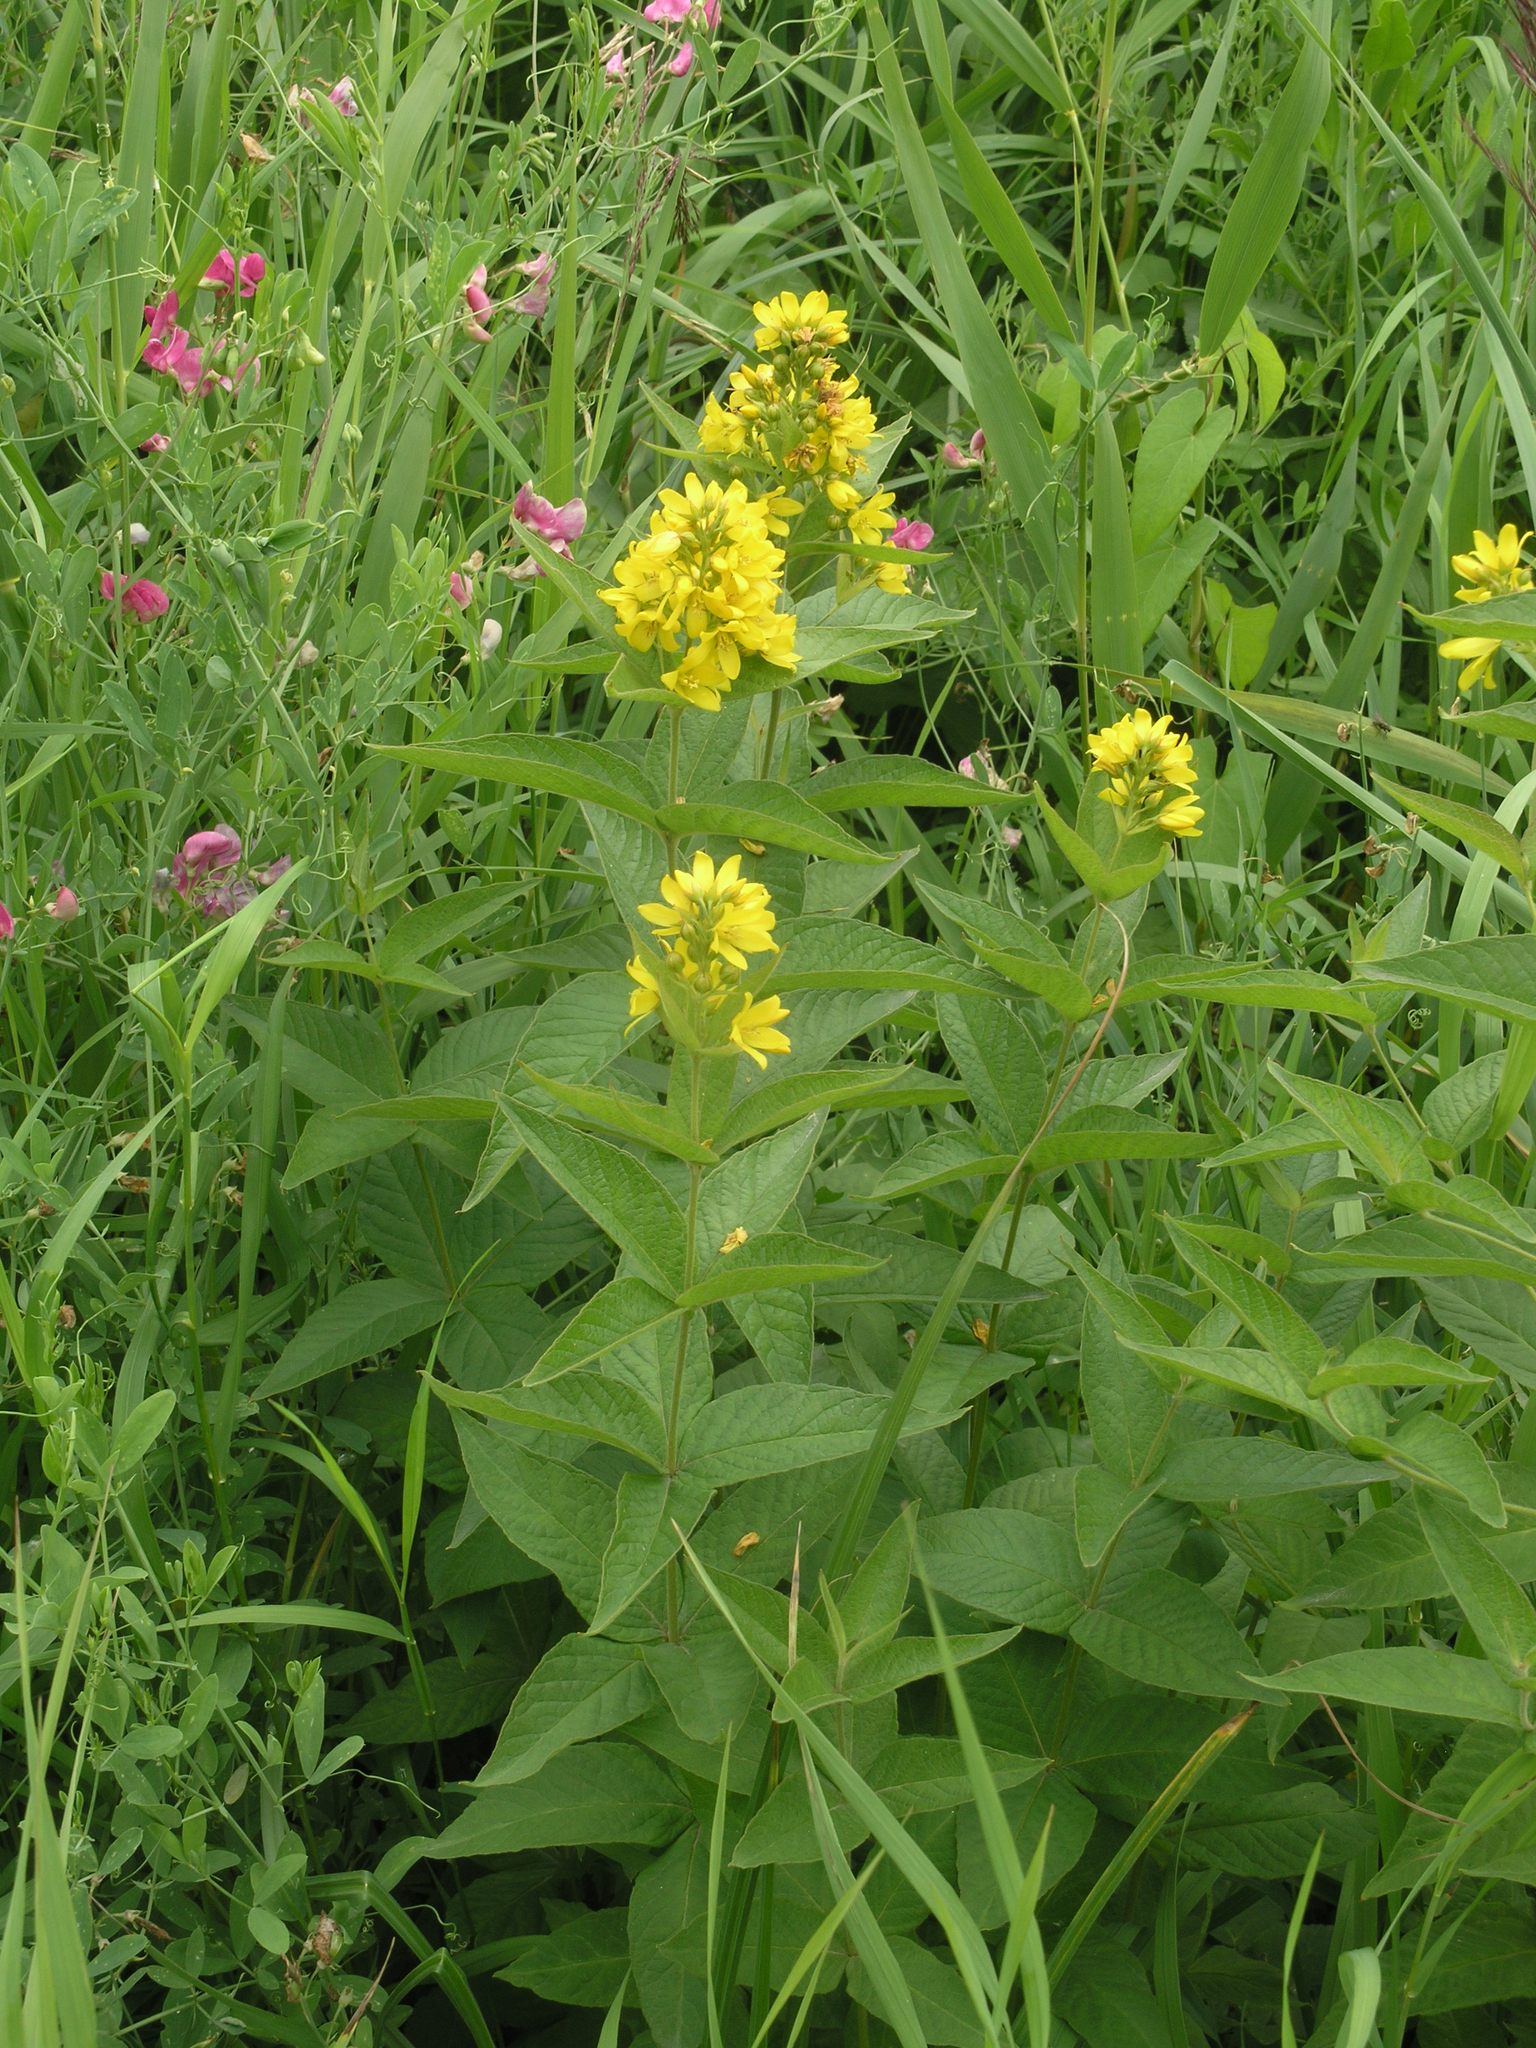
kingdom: Plantae
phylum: Tracheophyta
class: Magnoliopsida
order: Ericales
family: Primulaceae
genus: Lysimachia
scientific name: Lysimachia vulgaris
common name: Yellow loosestrife
